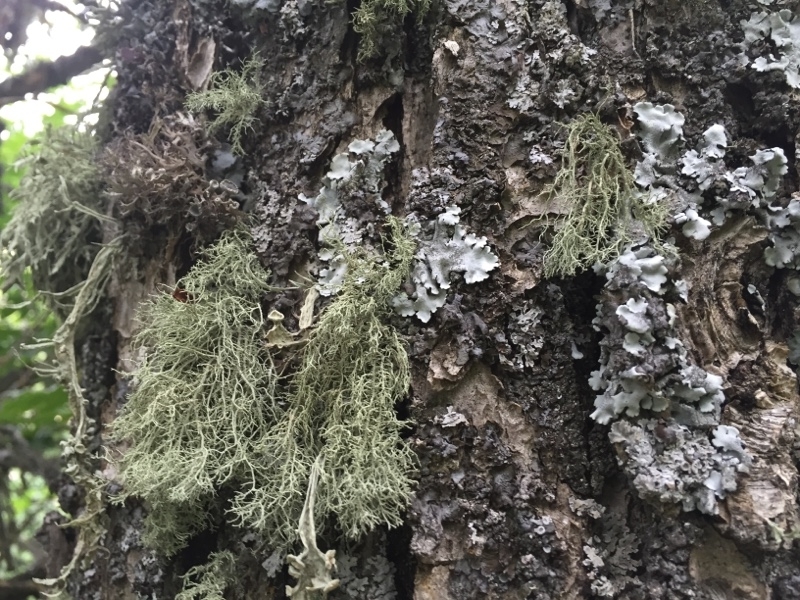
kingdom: Fungi
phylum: Ascomycota
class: Lecanoromycetes
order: Lecanorales
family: Parmeliaceae
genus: Usnea
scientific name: Usnea ceratina
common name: Warty beard lichen
